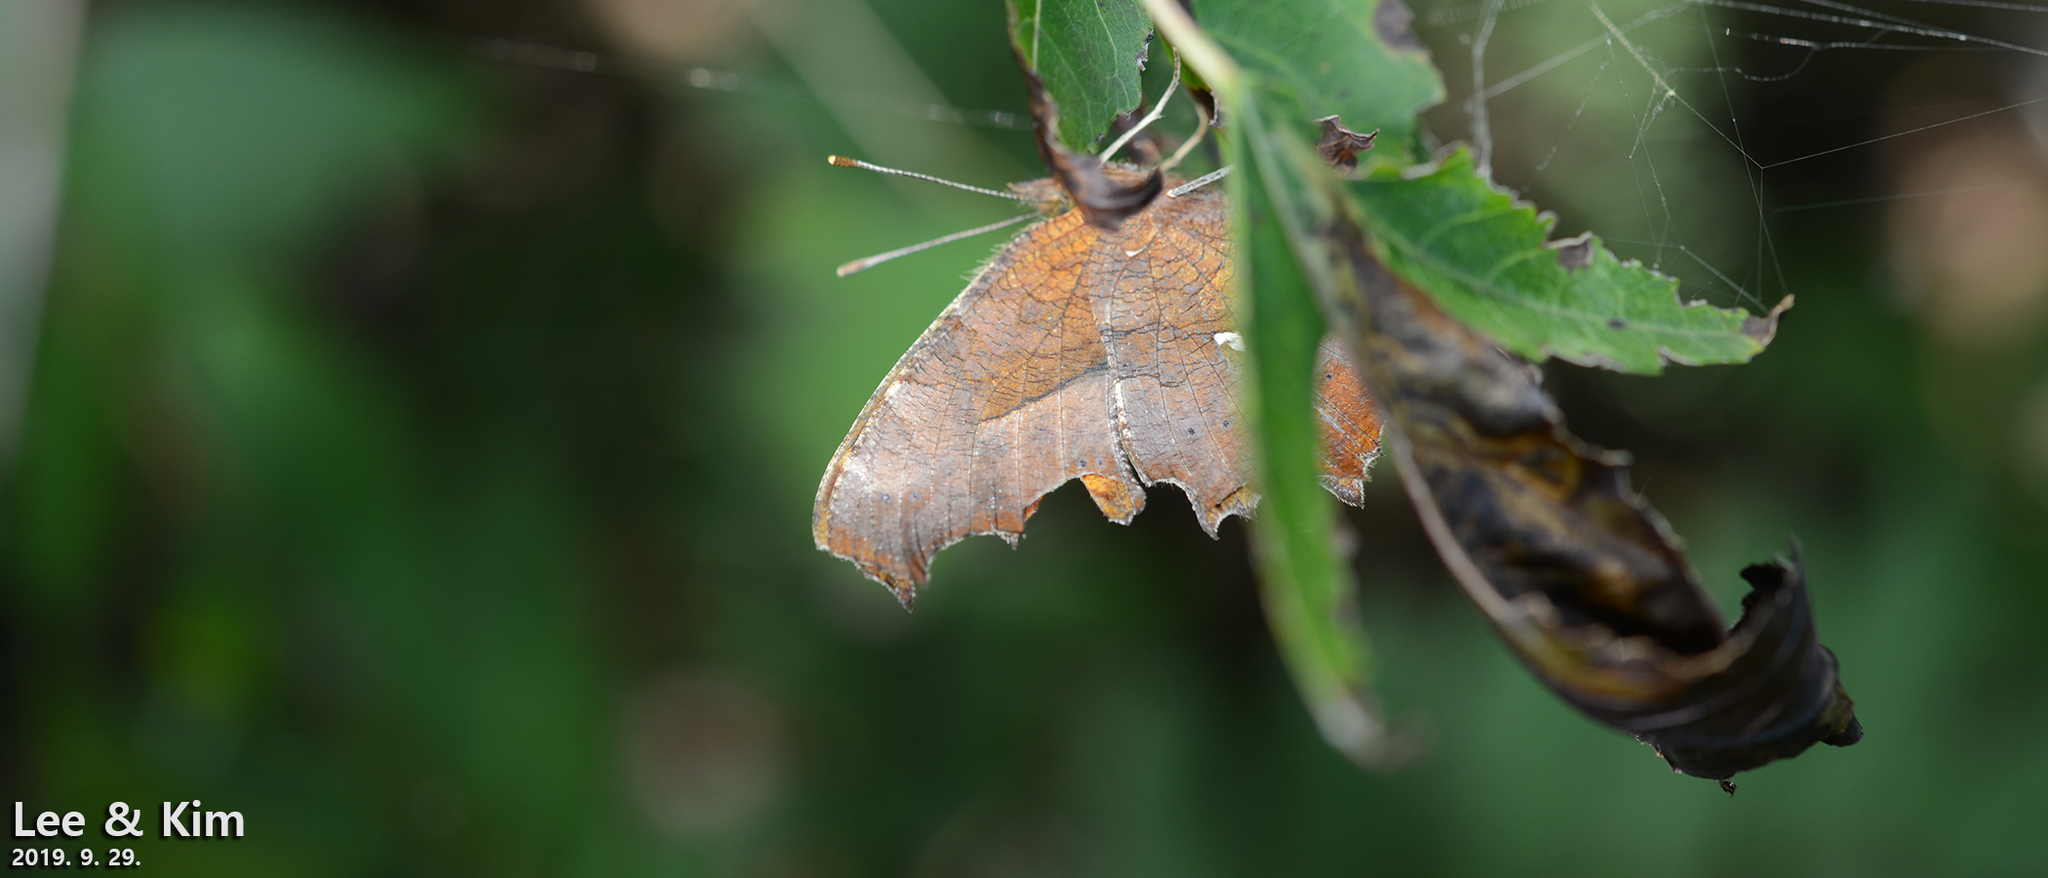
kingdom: Animalia
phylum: Arthropoda
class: Insecta
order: Lepidoptera
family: Nymphalidae
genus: Polygonia
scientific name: Polygonia c-aureum
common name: Asian comma
